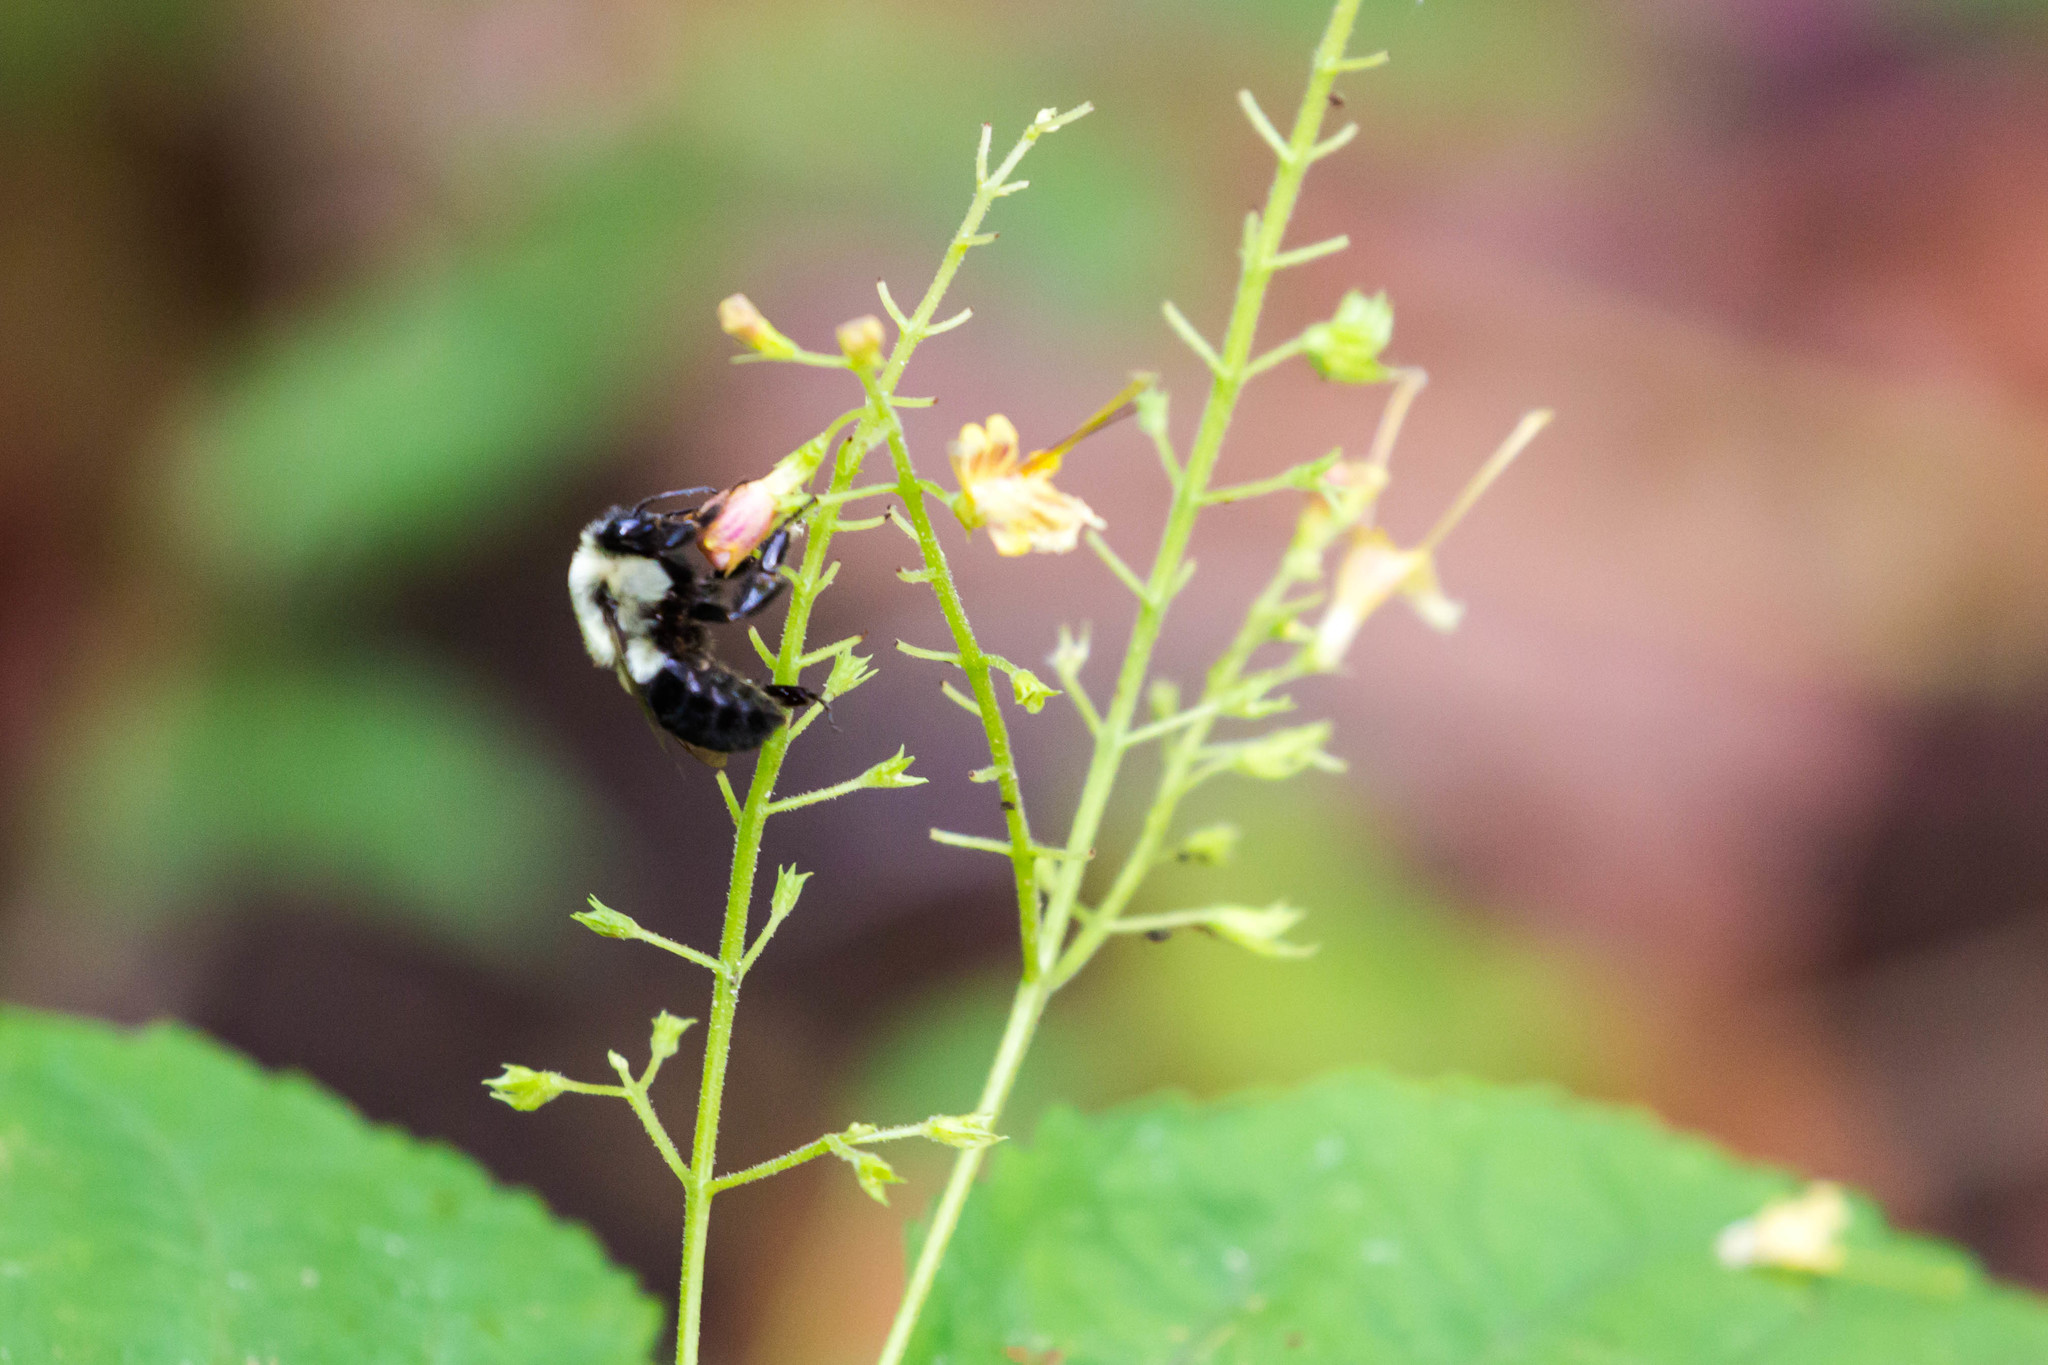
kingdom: Animalia
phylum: Arthropoda
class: Insecta
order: Hymenoptera
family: Apidae
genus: Bombus
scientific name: Bombus impatiens
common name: Common eastern bumble bee
